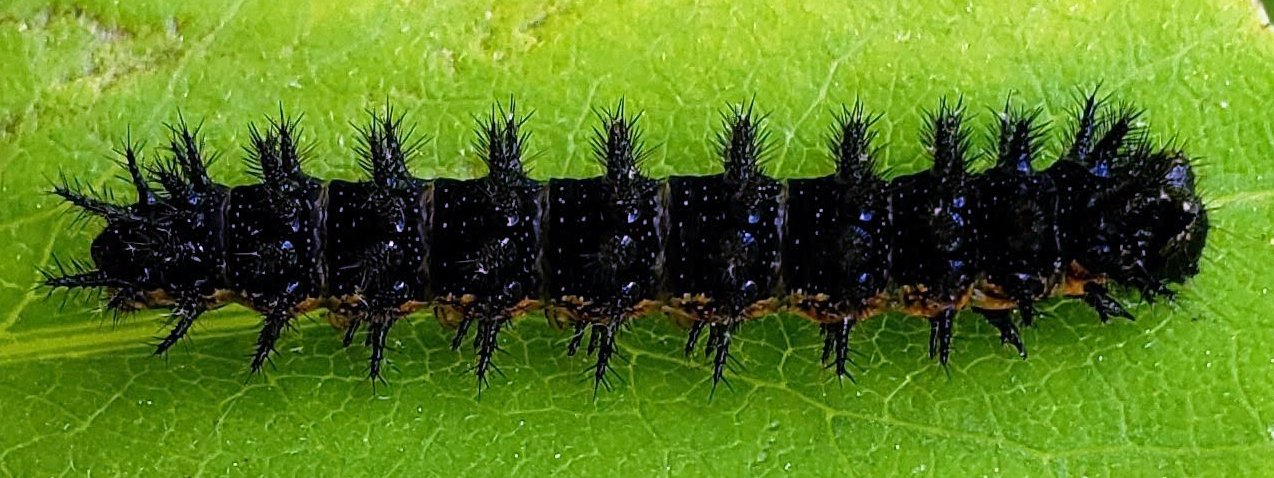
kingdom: Animalia
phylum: Arthropoda
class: Insecta
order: Lepidoptera
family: Nymphalidae
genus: Chlosyne
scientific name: Chlosyne nycteis
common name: Silvery checkerspot
